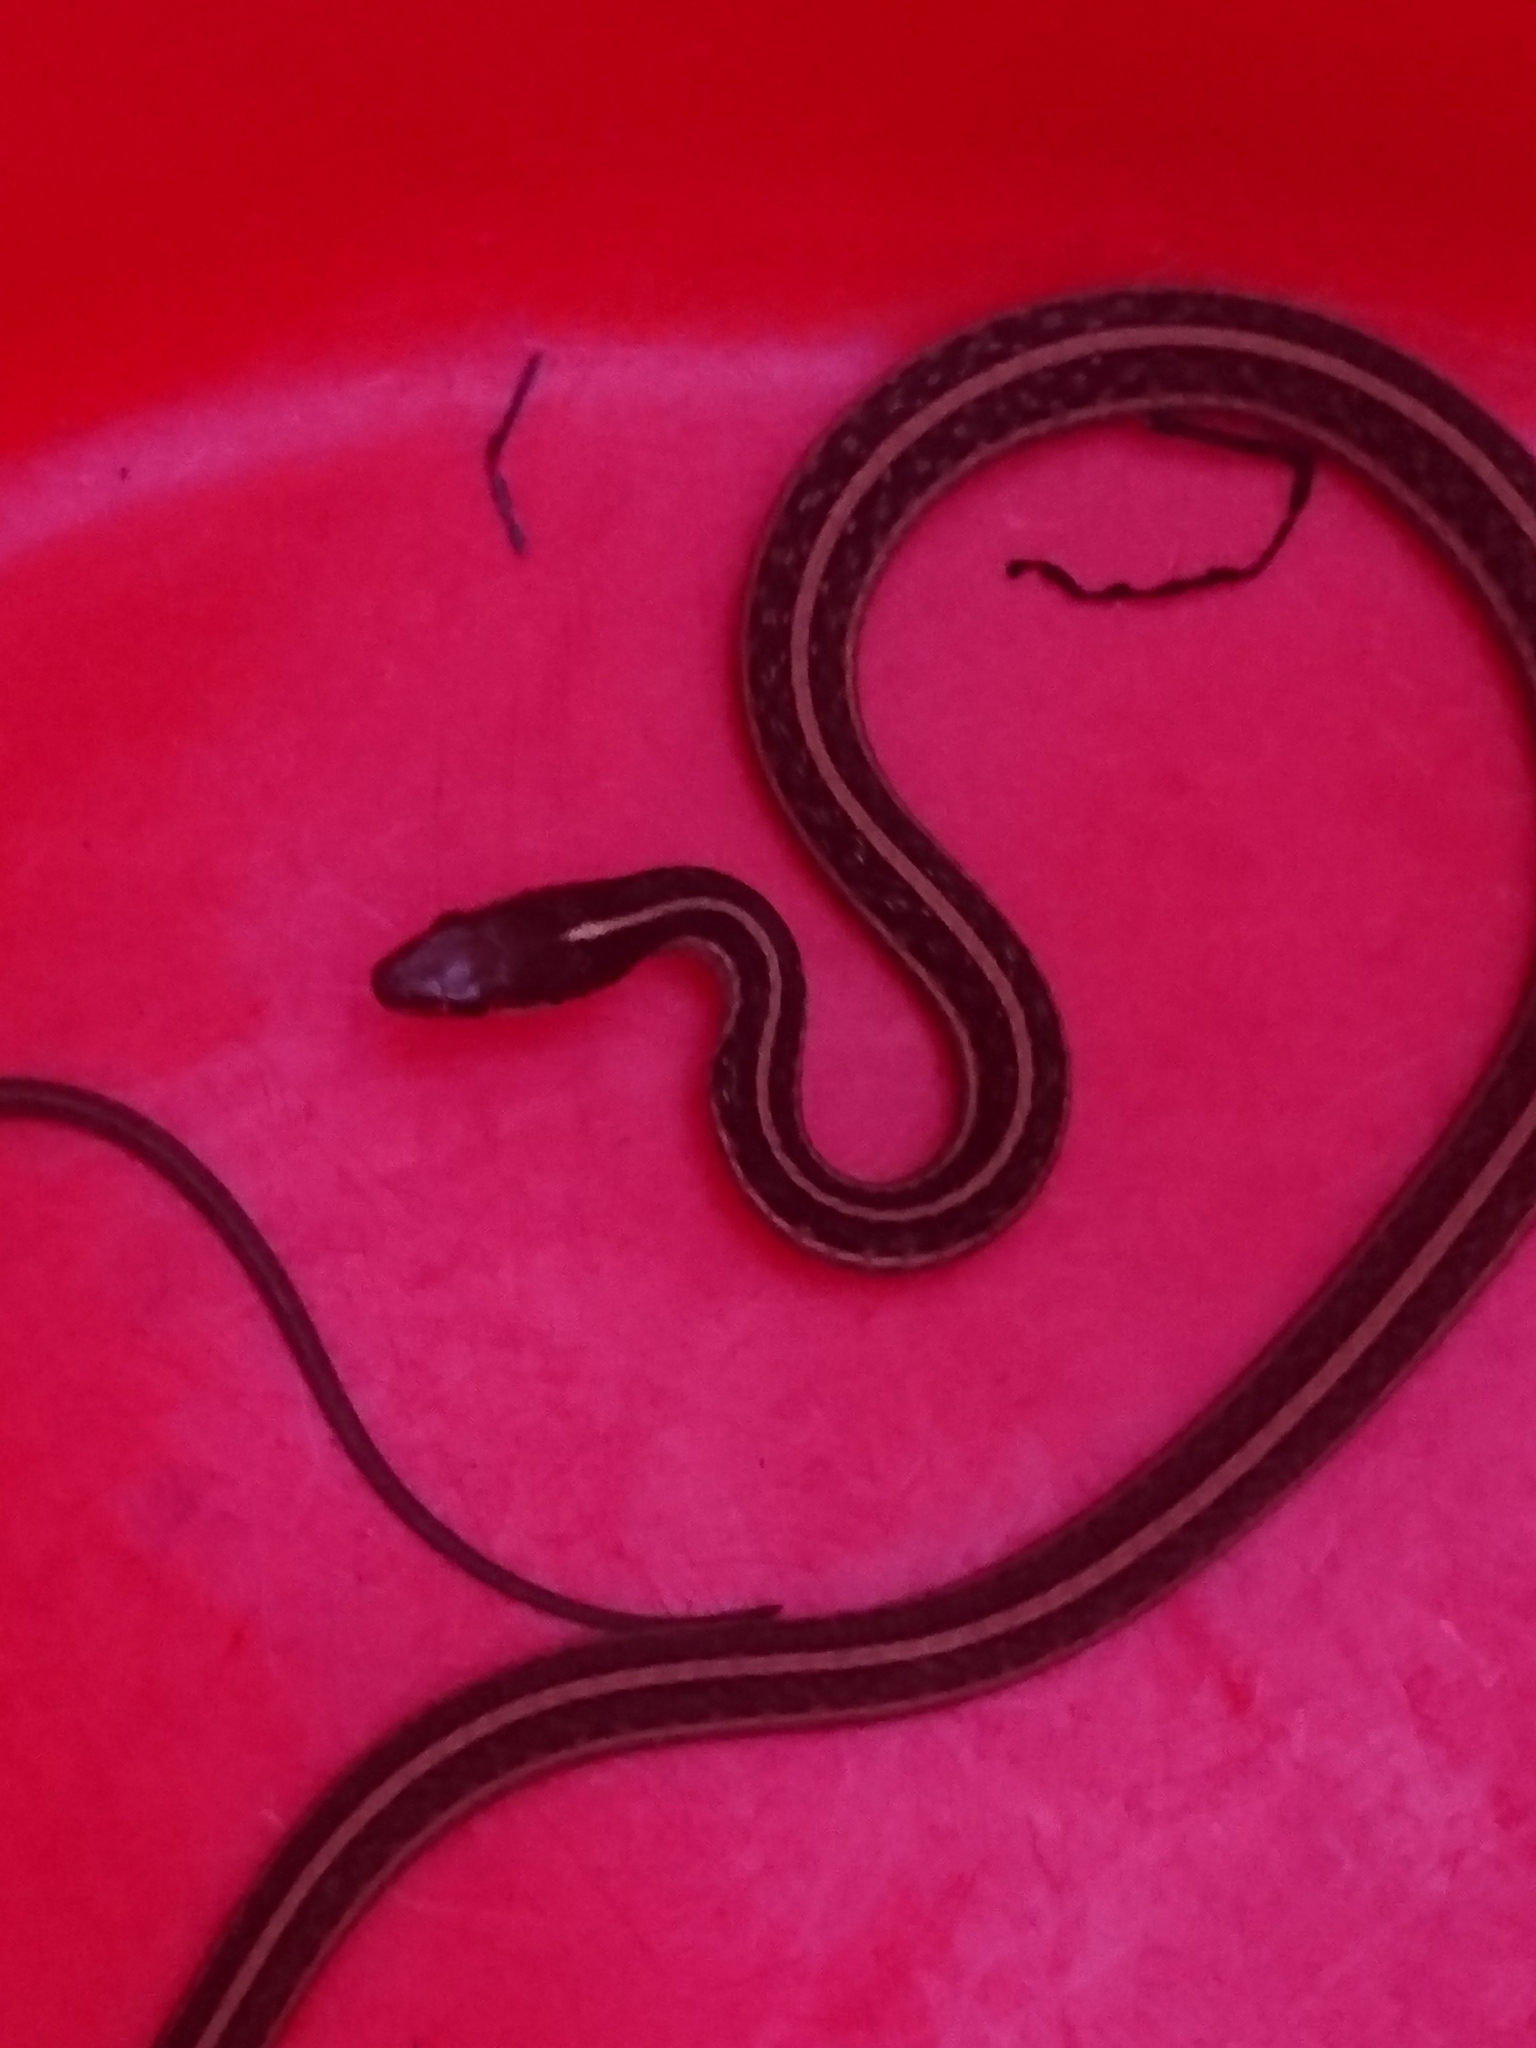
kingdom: Animalia
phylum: Chordata
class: Squamata
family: Colubridae
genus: Thamnophis
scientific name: Thamnophis saurita
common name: Eastern ribbonsnake
